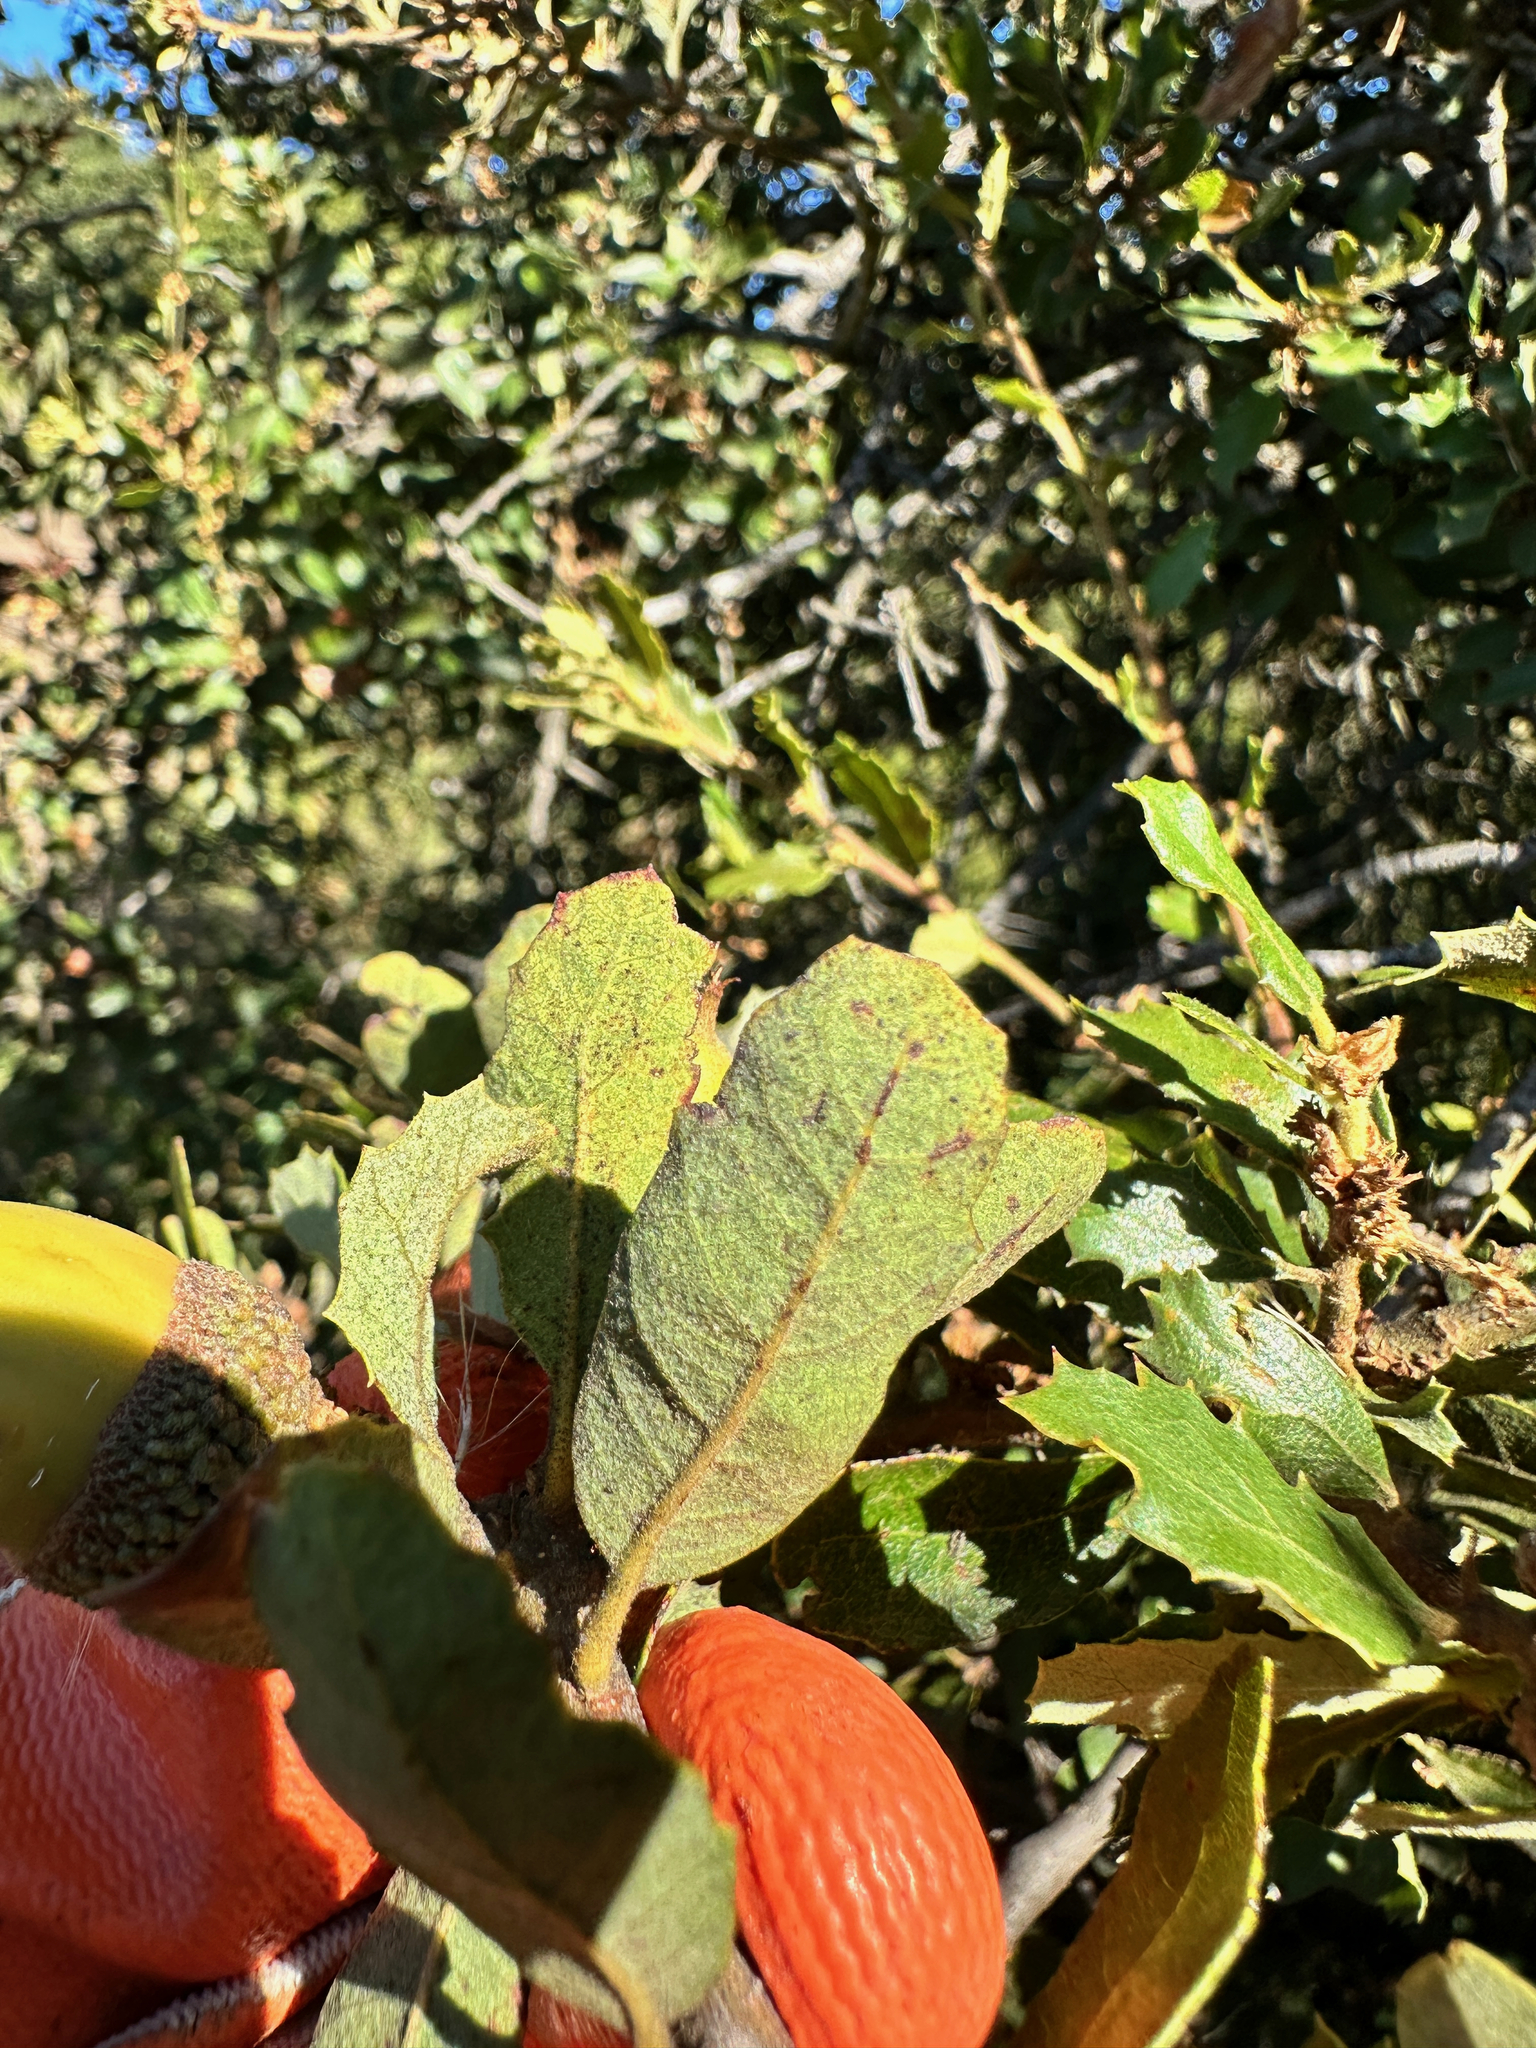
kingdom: Plantae
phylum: Tracheophyta
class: Magnoliopsida
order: Fagales
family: Fagaceae
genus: Quercus
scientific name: Quercus berberidifolia
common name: California scrub oak
